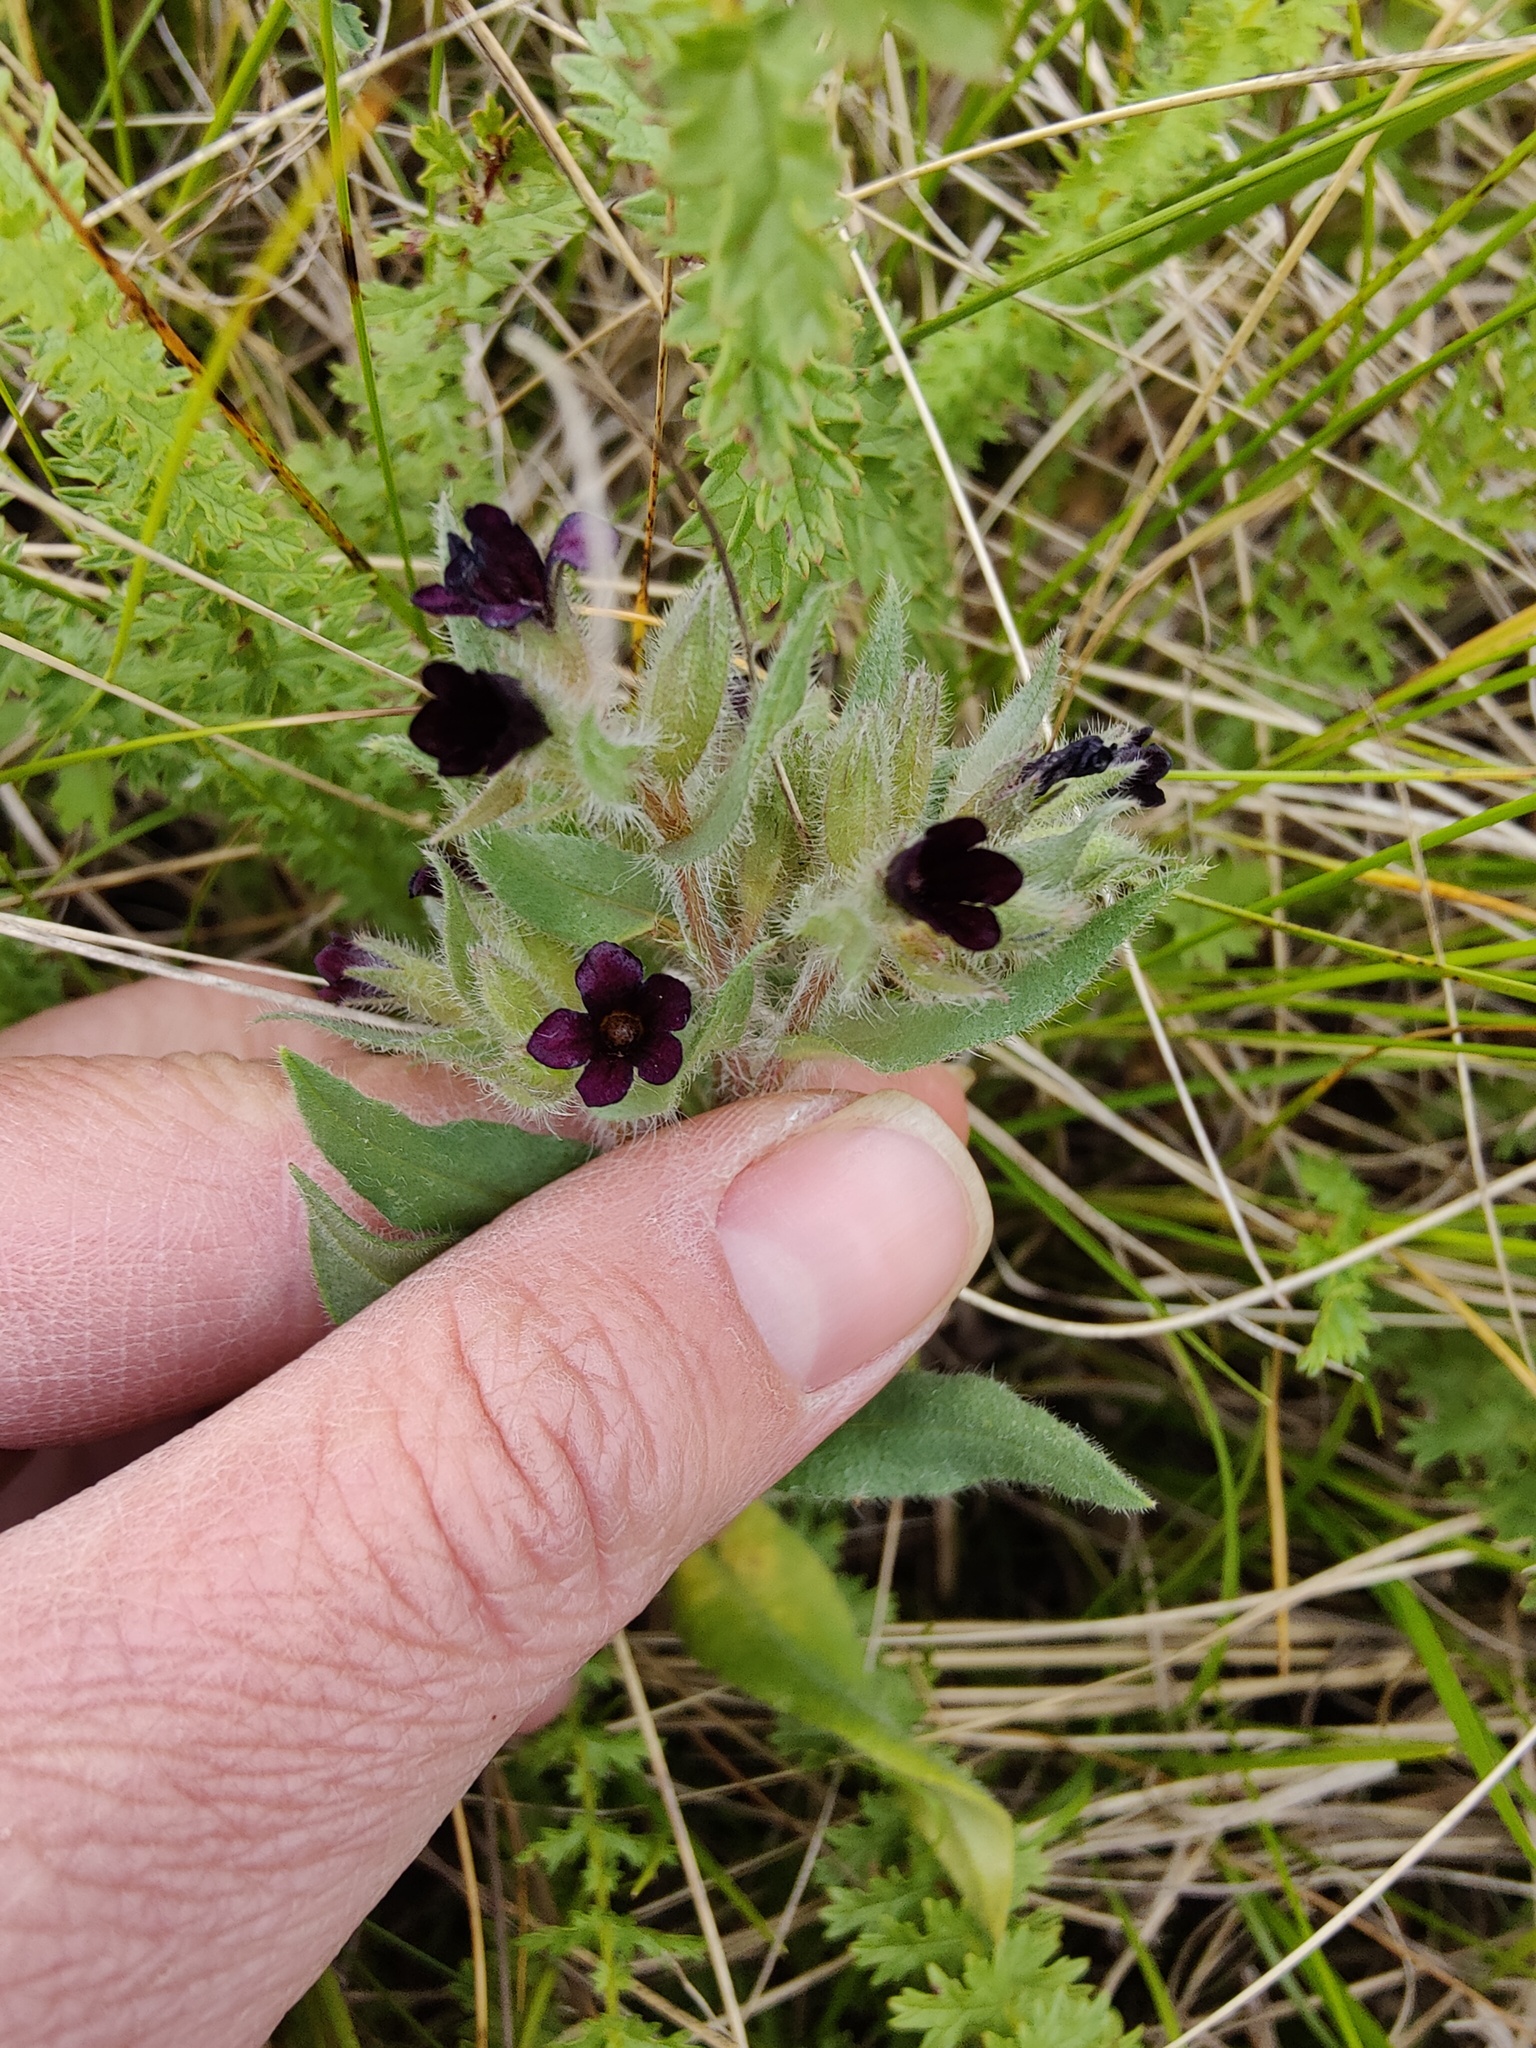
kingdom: Plantae
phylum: Tracheophyta
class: Magnoliopsida
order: Boraginales
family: Boraginaceae
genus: Nonea
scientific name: Nonea pulla
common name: Brown nonea
